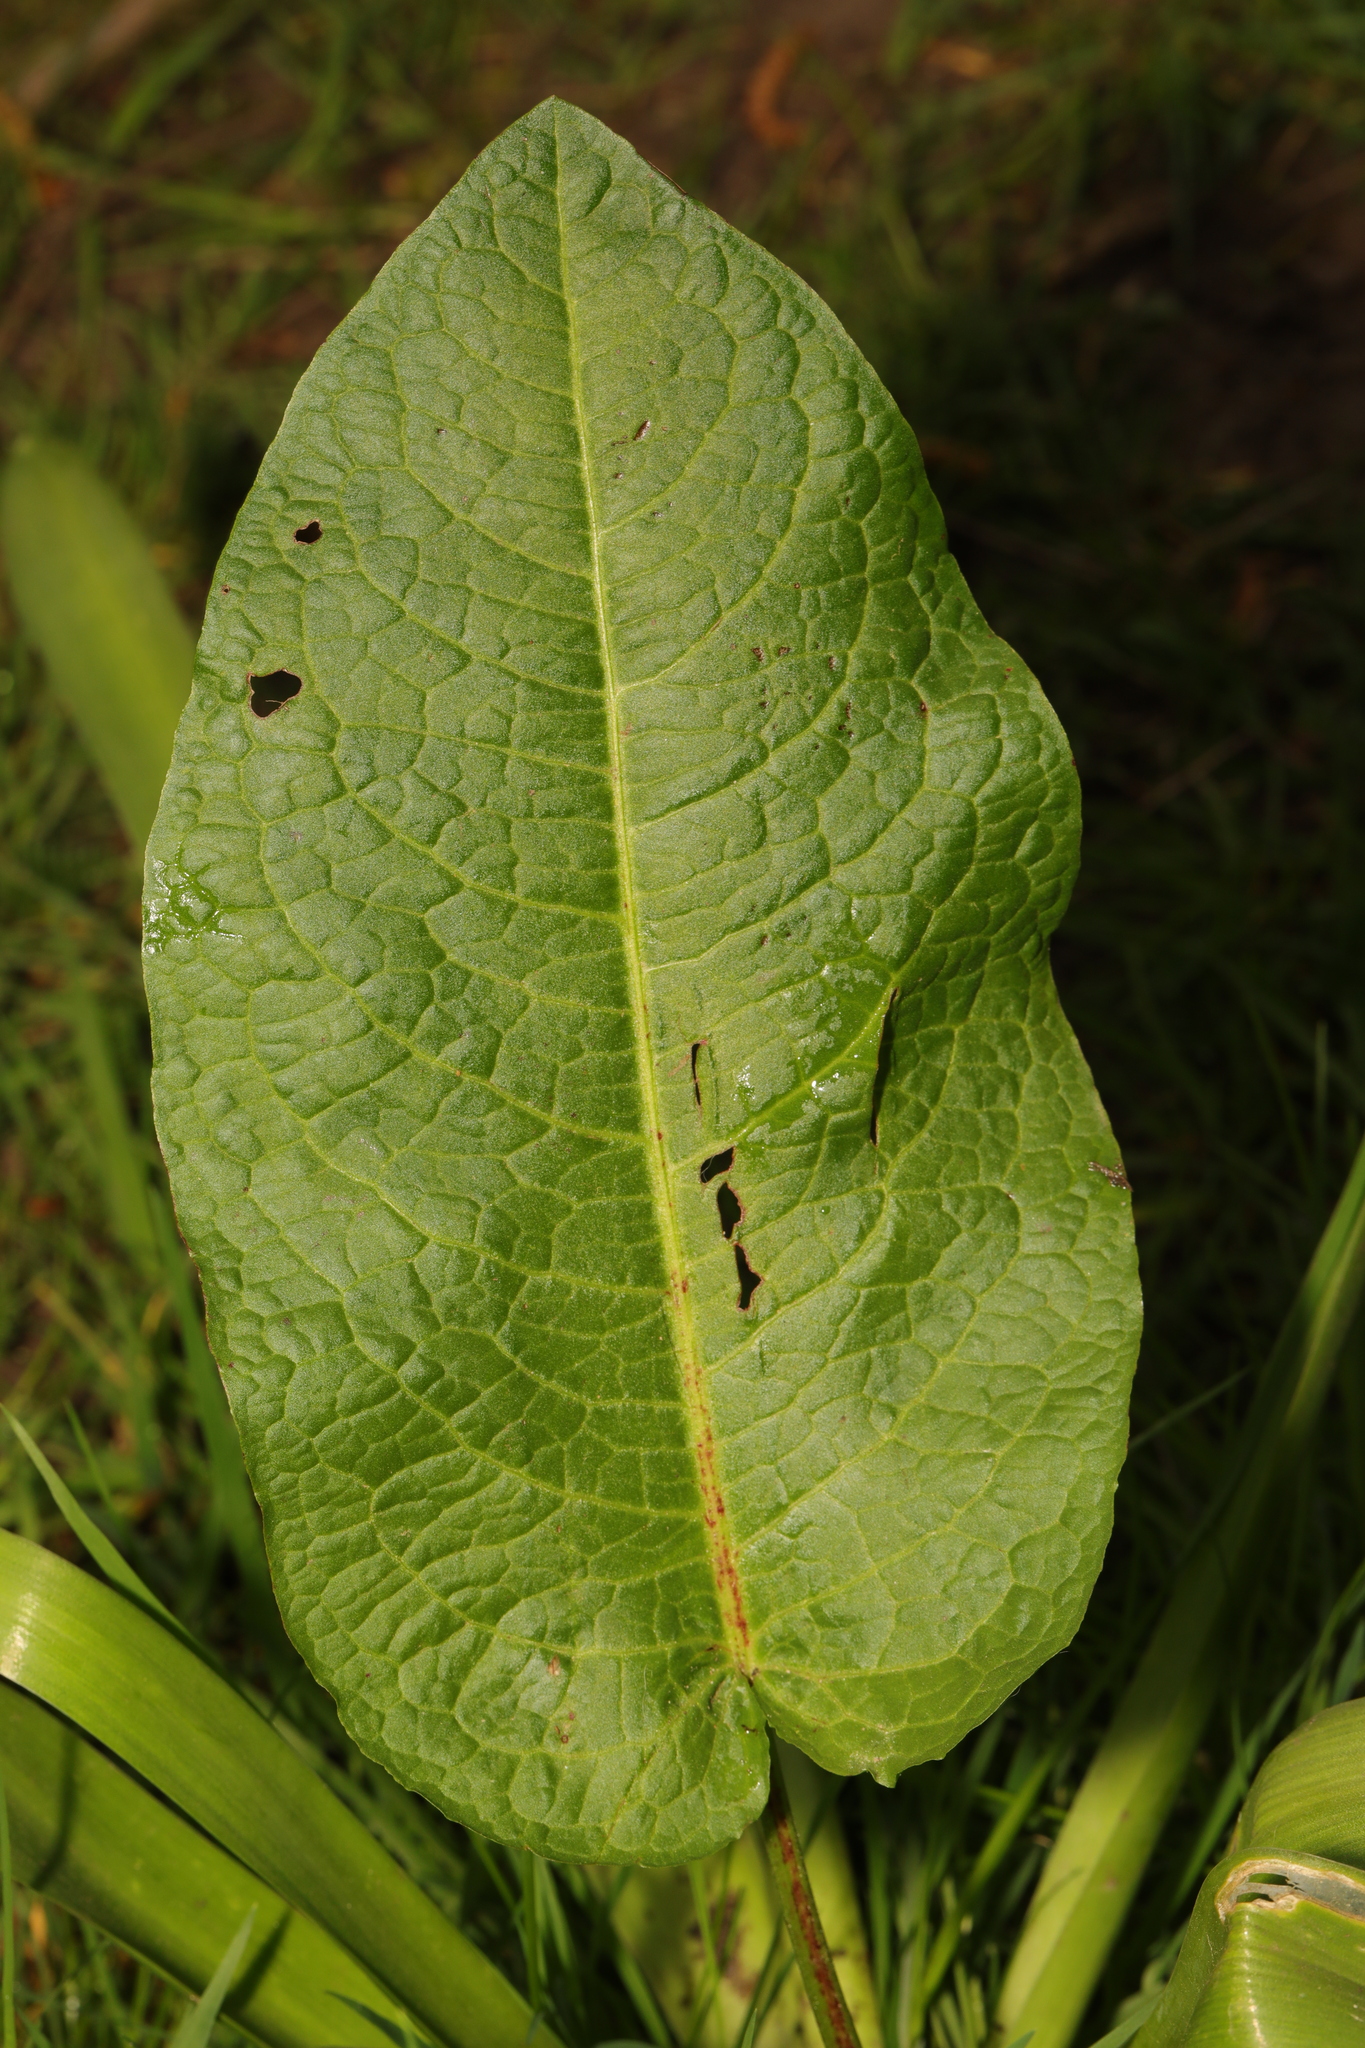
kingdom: Plantae
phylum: Tracheophyta
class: Magnoliopsida
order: Caryophyllales
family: Polygonaceae
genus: Rumex
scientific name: Rumex obtusifolius
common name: Bitter dock
